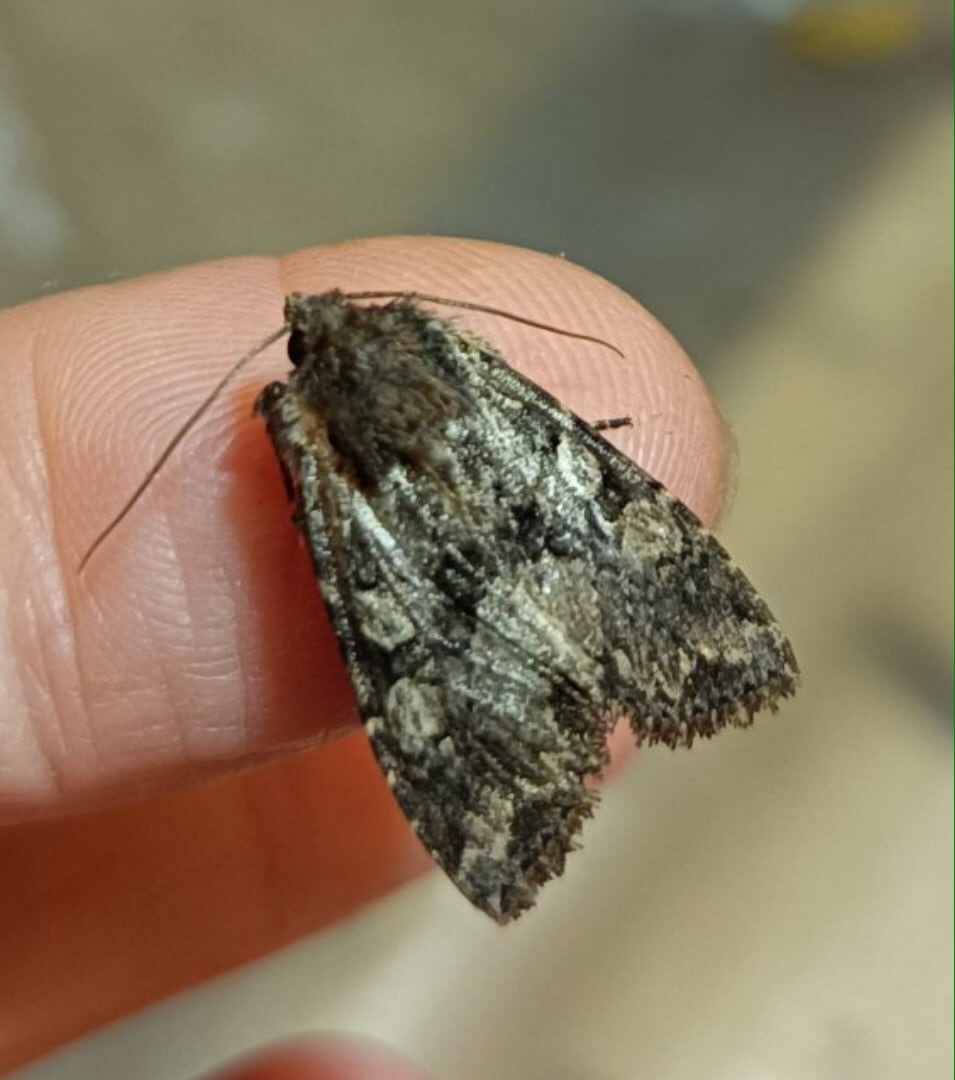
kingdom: Animalia
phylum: Arthropoda
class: Insecta
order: Lepidoptera
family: Noctuidae
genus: Lacanobia
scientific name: Lacanobia thalassina
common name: Pale-shouldered brocade
